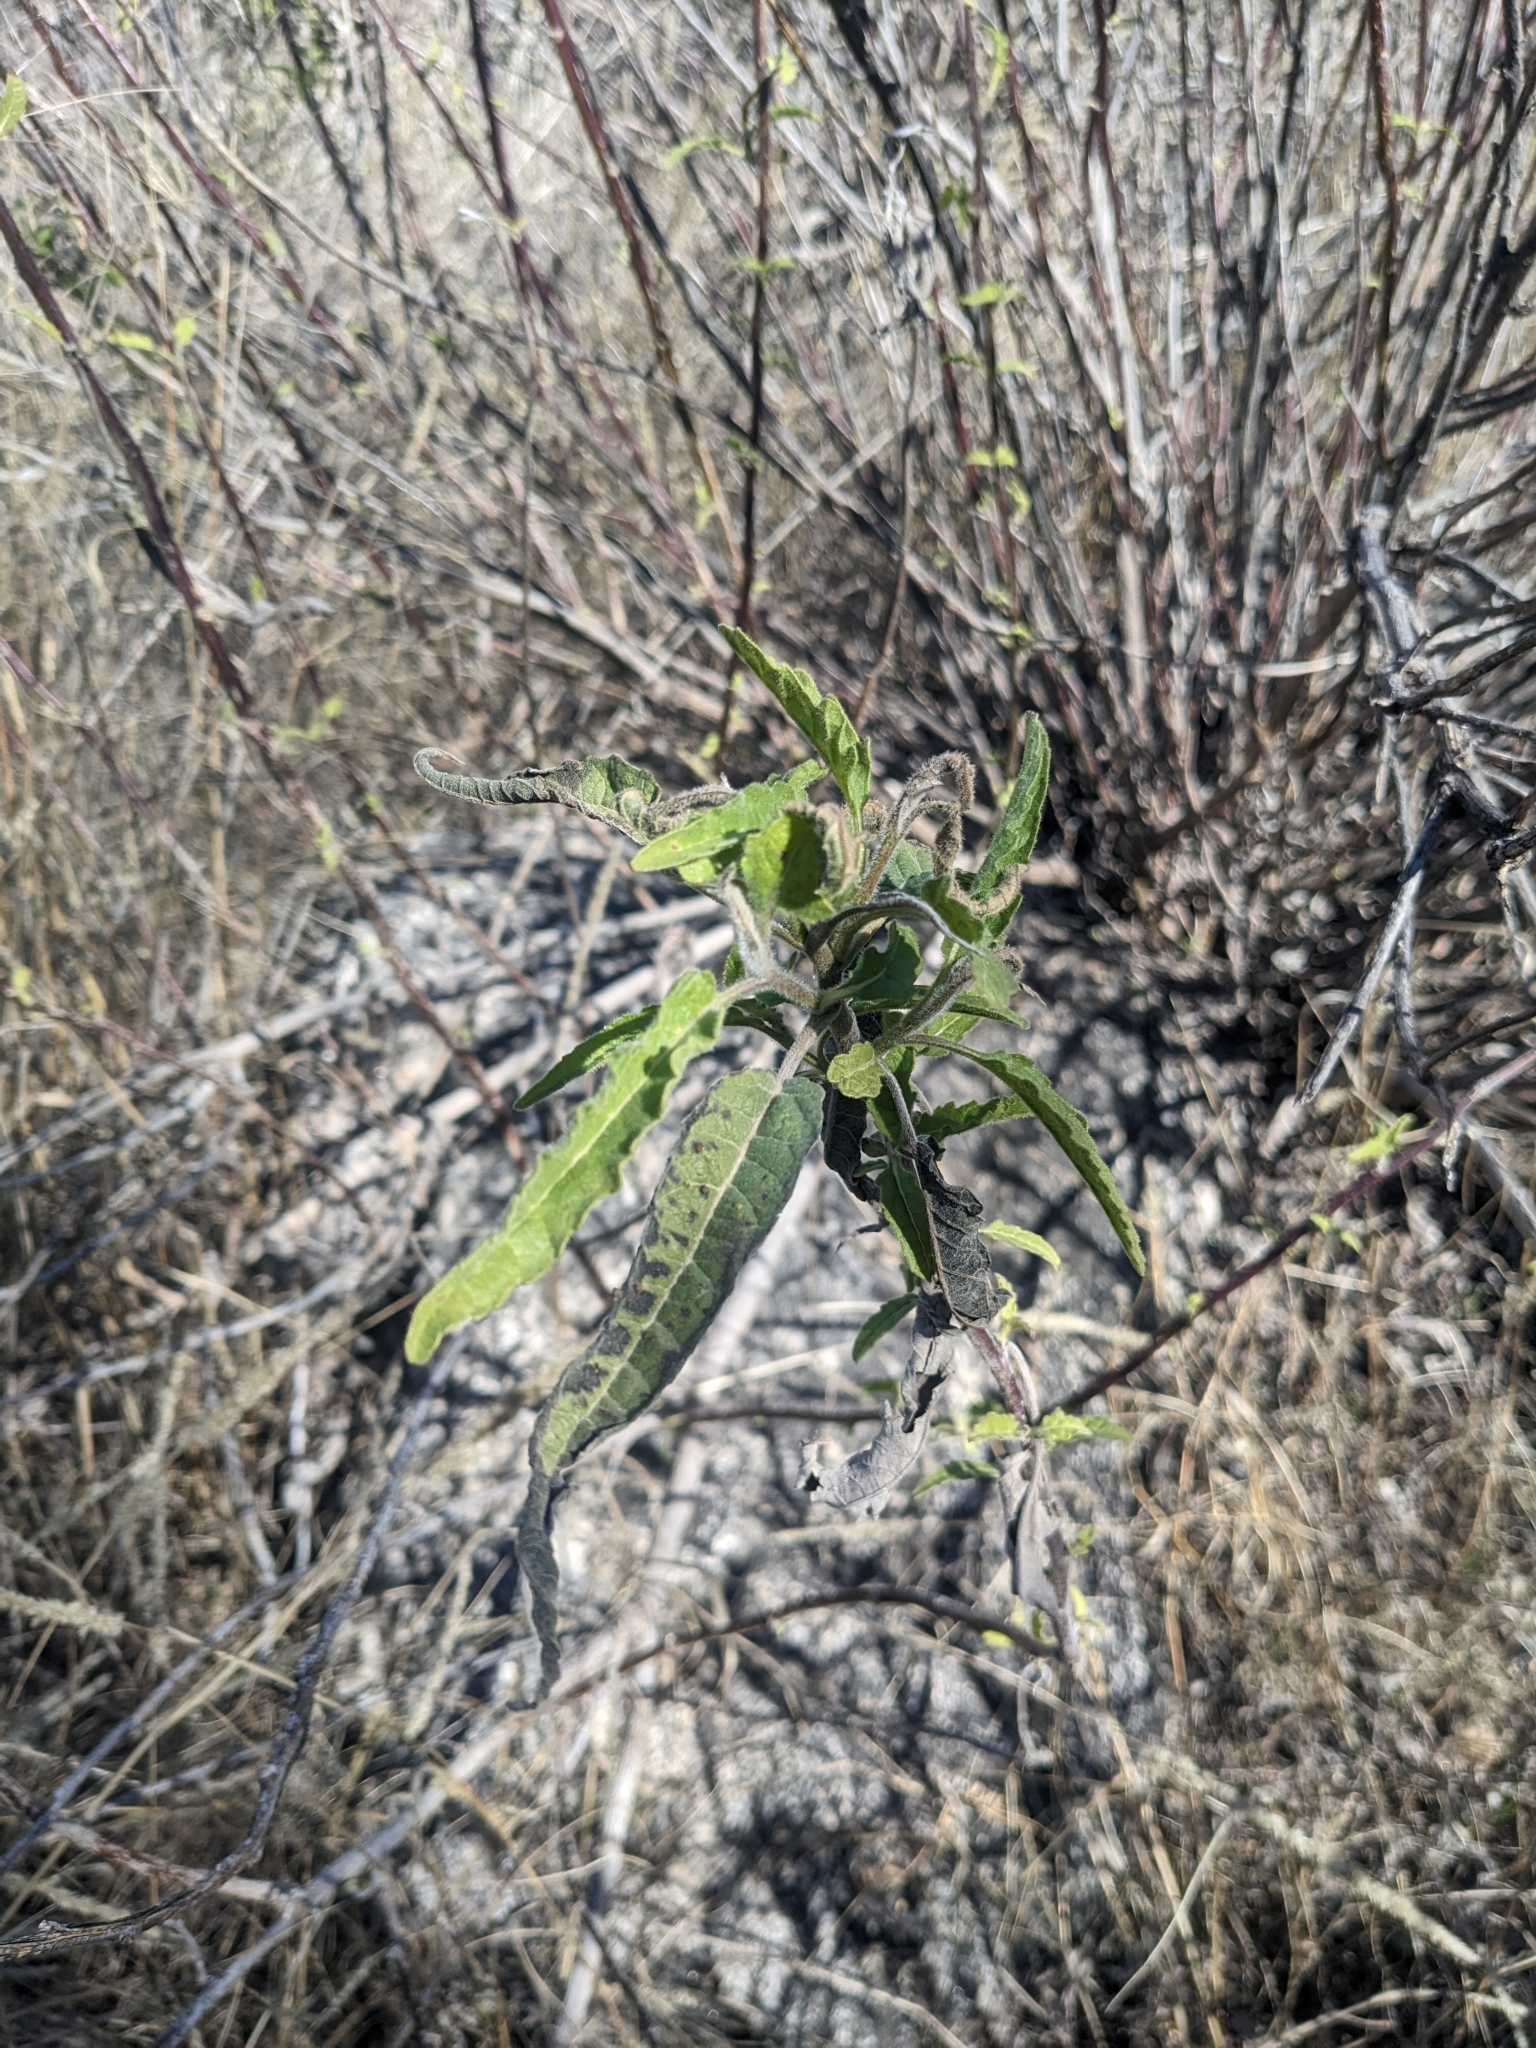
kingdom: Plantae
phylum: Tracheophyta
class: Magnoliopsida
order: Asterales
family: Asteraceae
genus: Ambrosia
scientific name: Ambrosia ambrosioides
